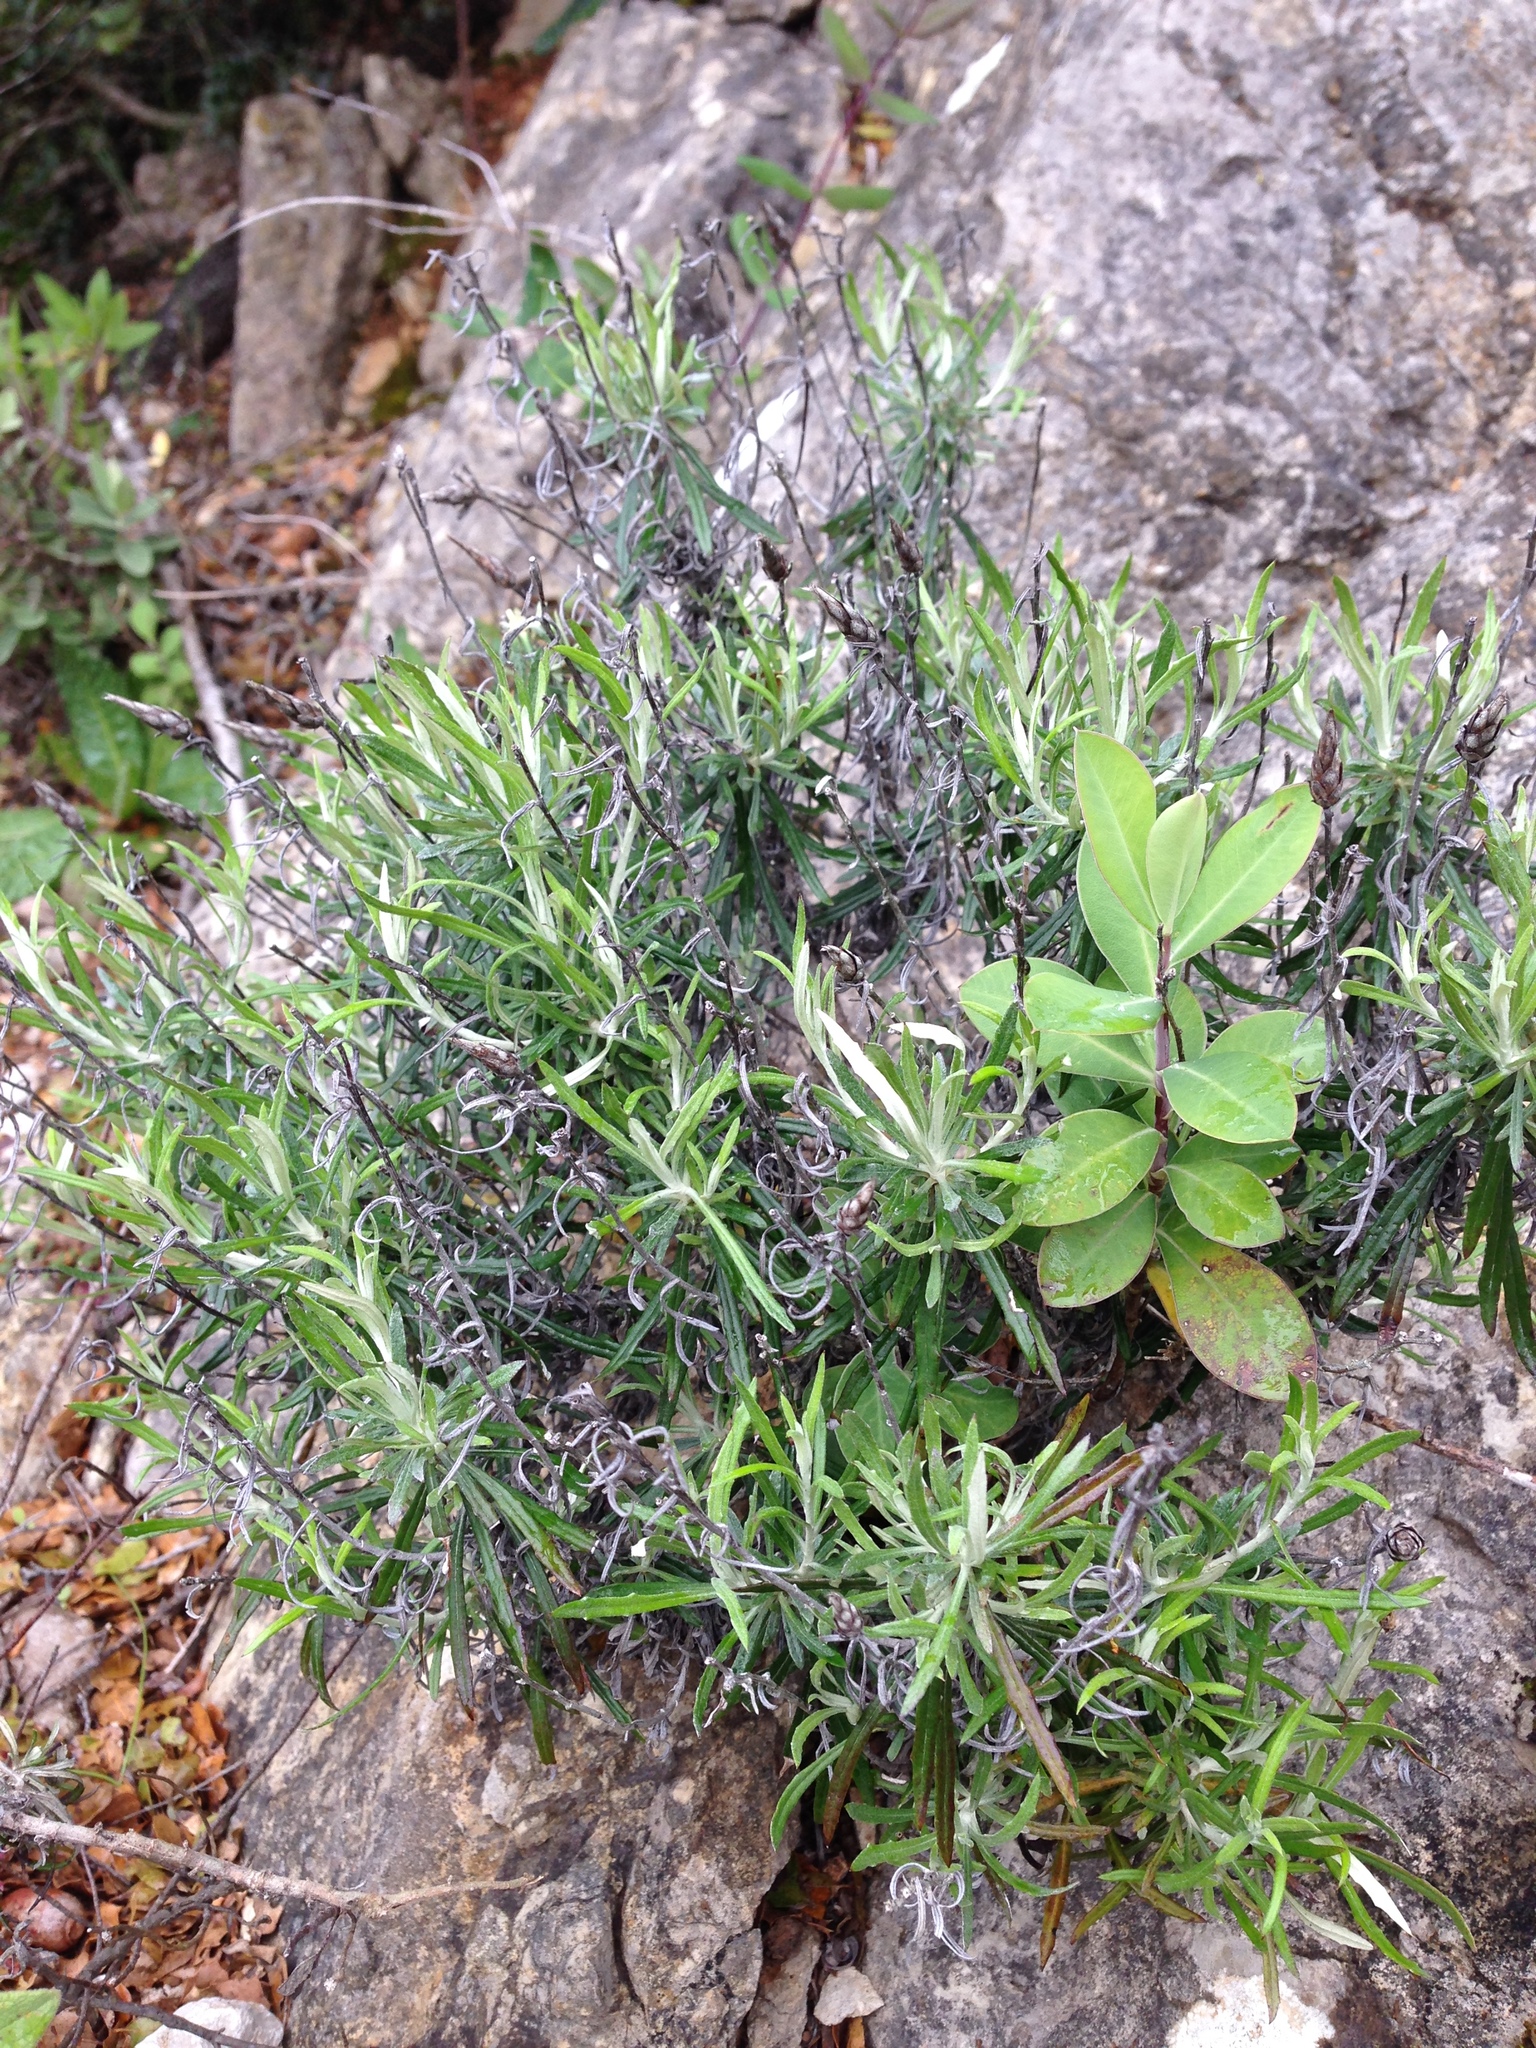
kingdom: Plantae
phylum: Tracheophyta
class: Magnoliopsida
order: Asterales
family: Asteraceae
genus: Phagnalon
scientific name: Phagnalon saxatile
